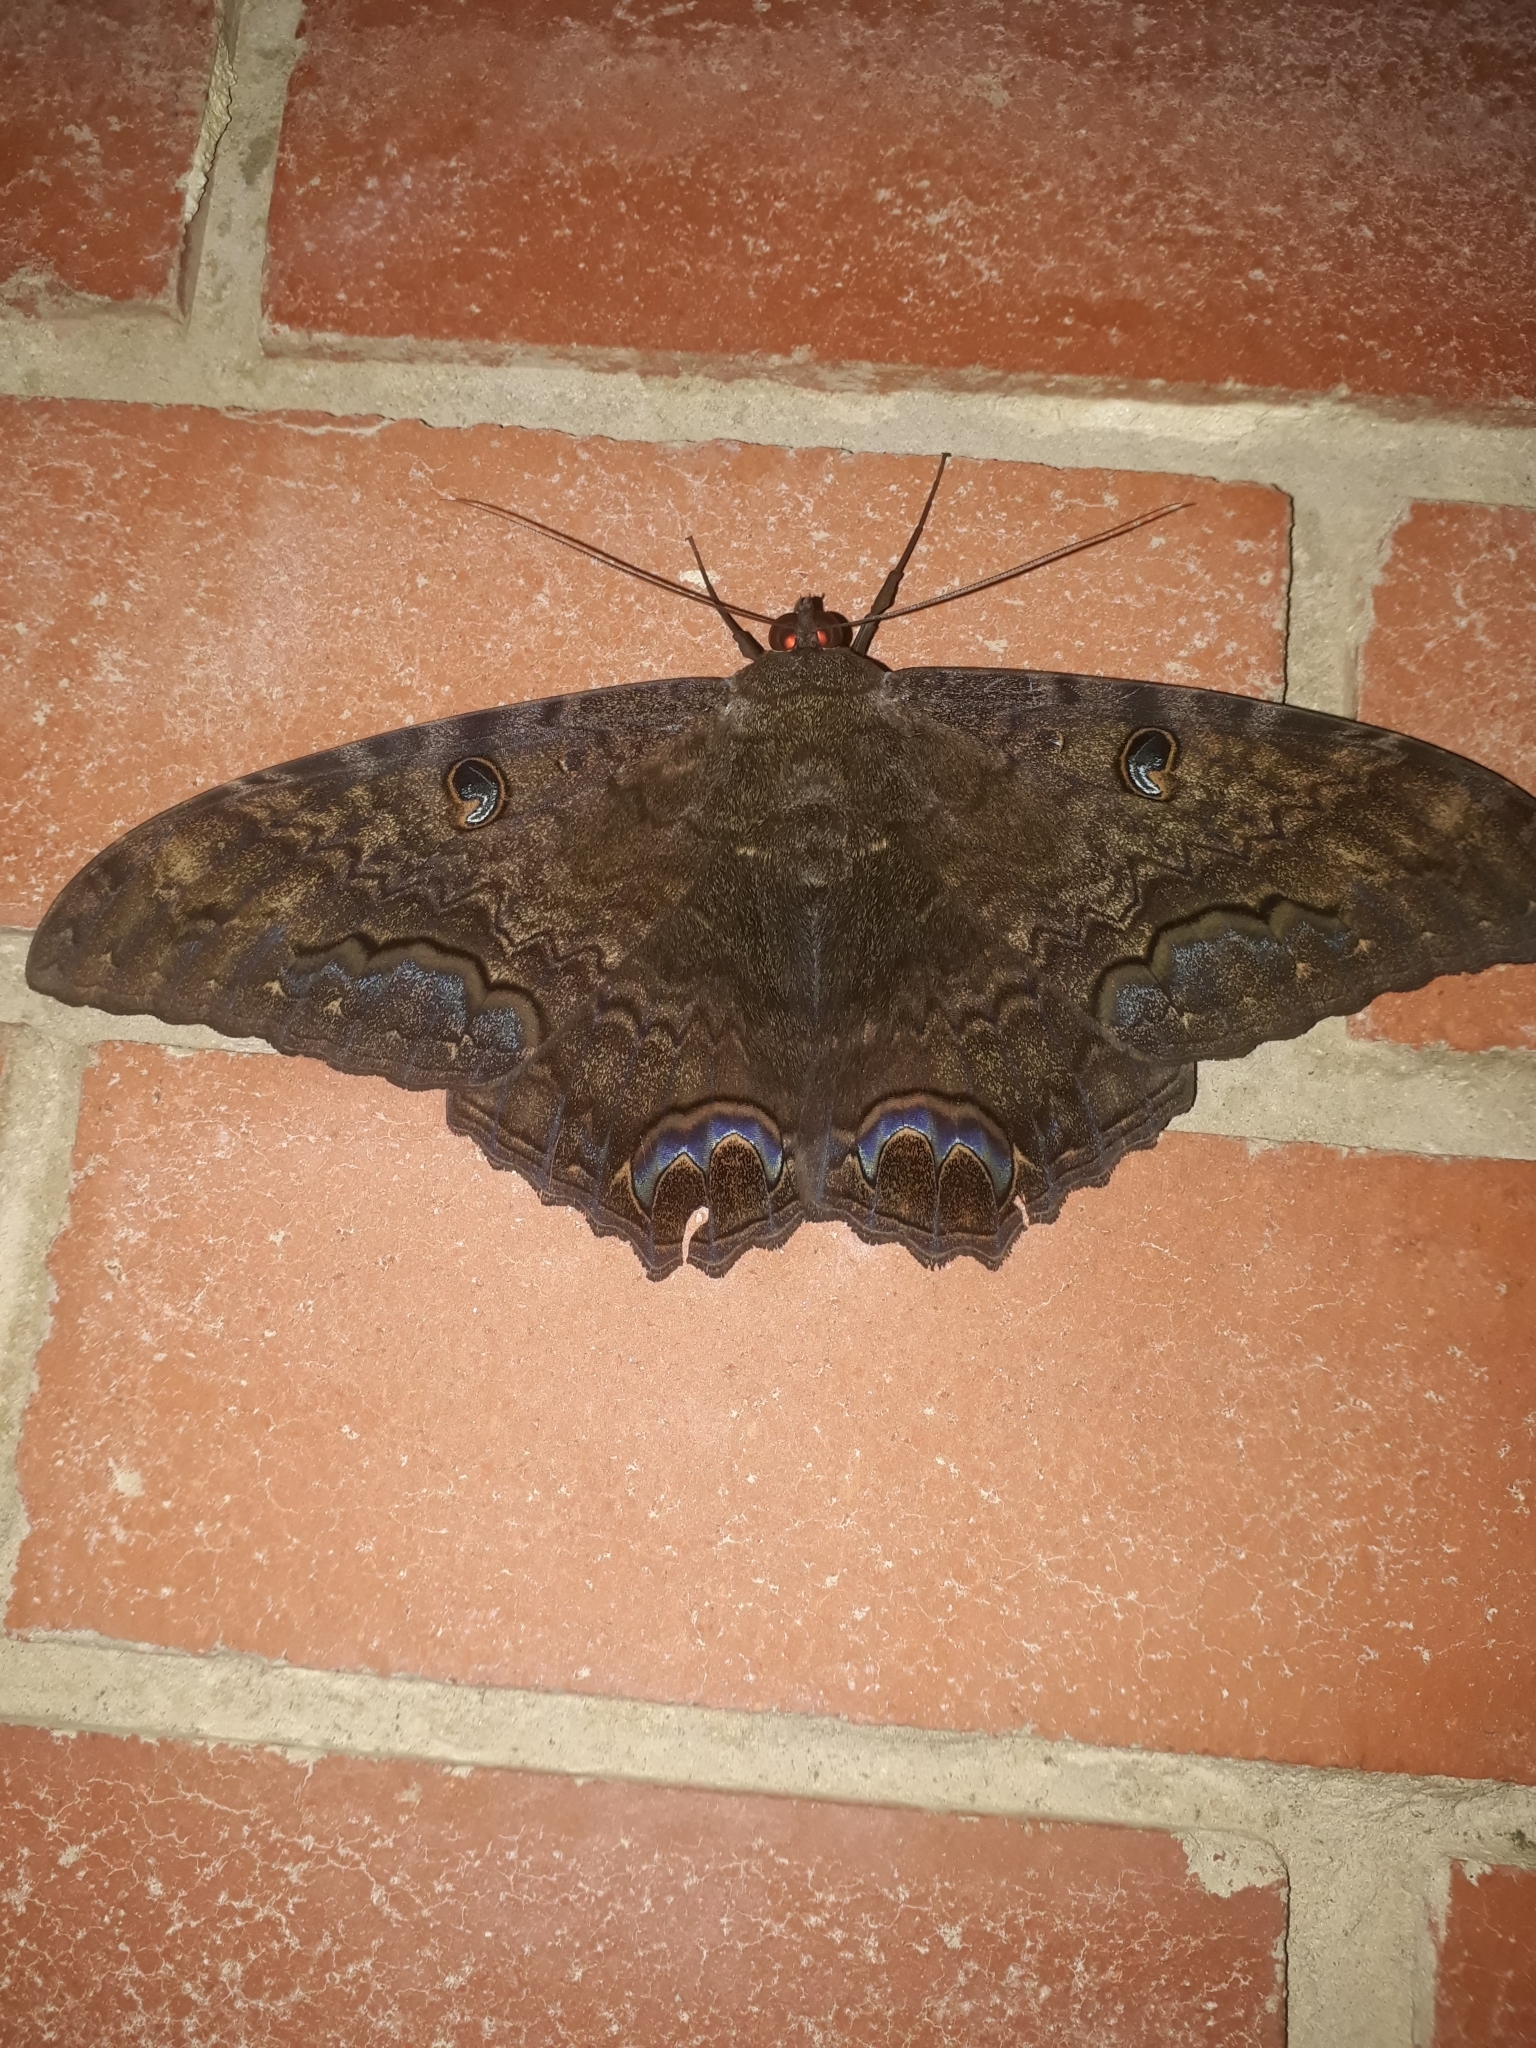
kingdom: Animalia
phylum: Arthropoda
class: Insecta
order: Lepidoptera
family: Erebidae
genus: Ascalapha
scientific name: Ascalapha odorata
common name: Black witch
